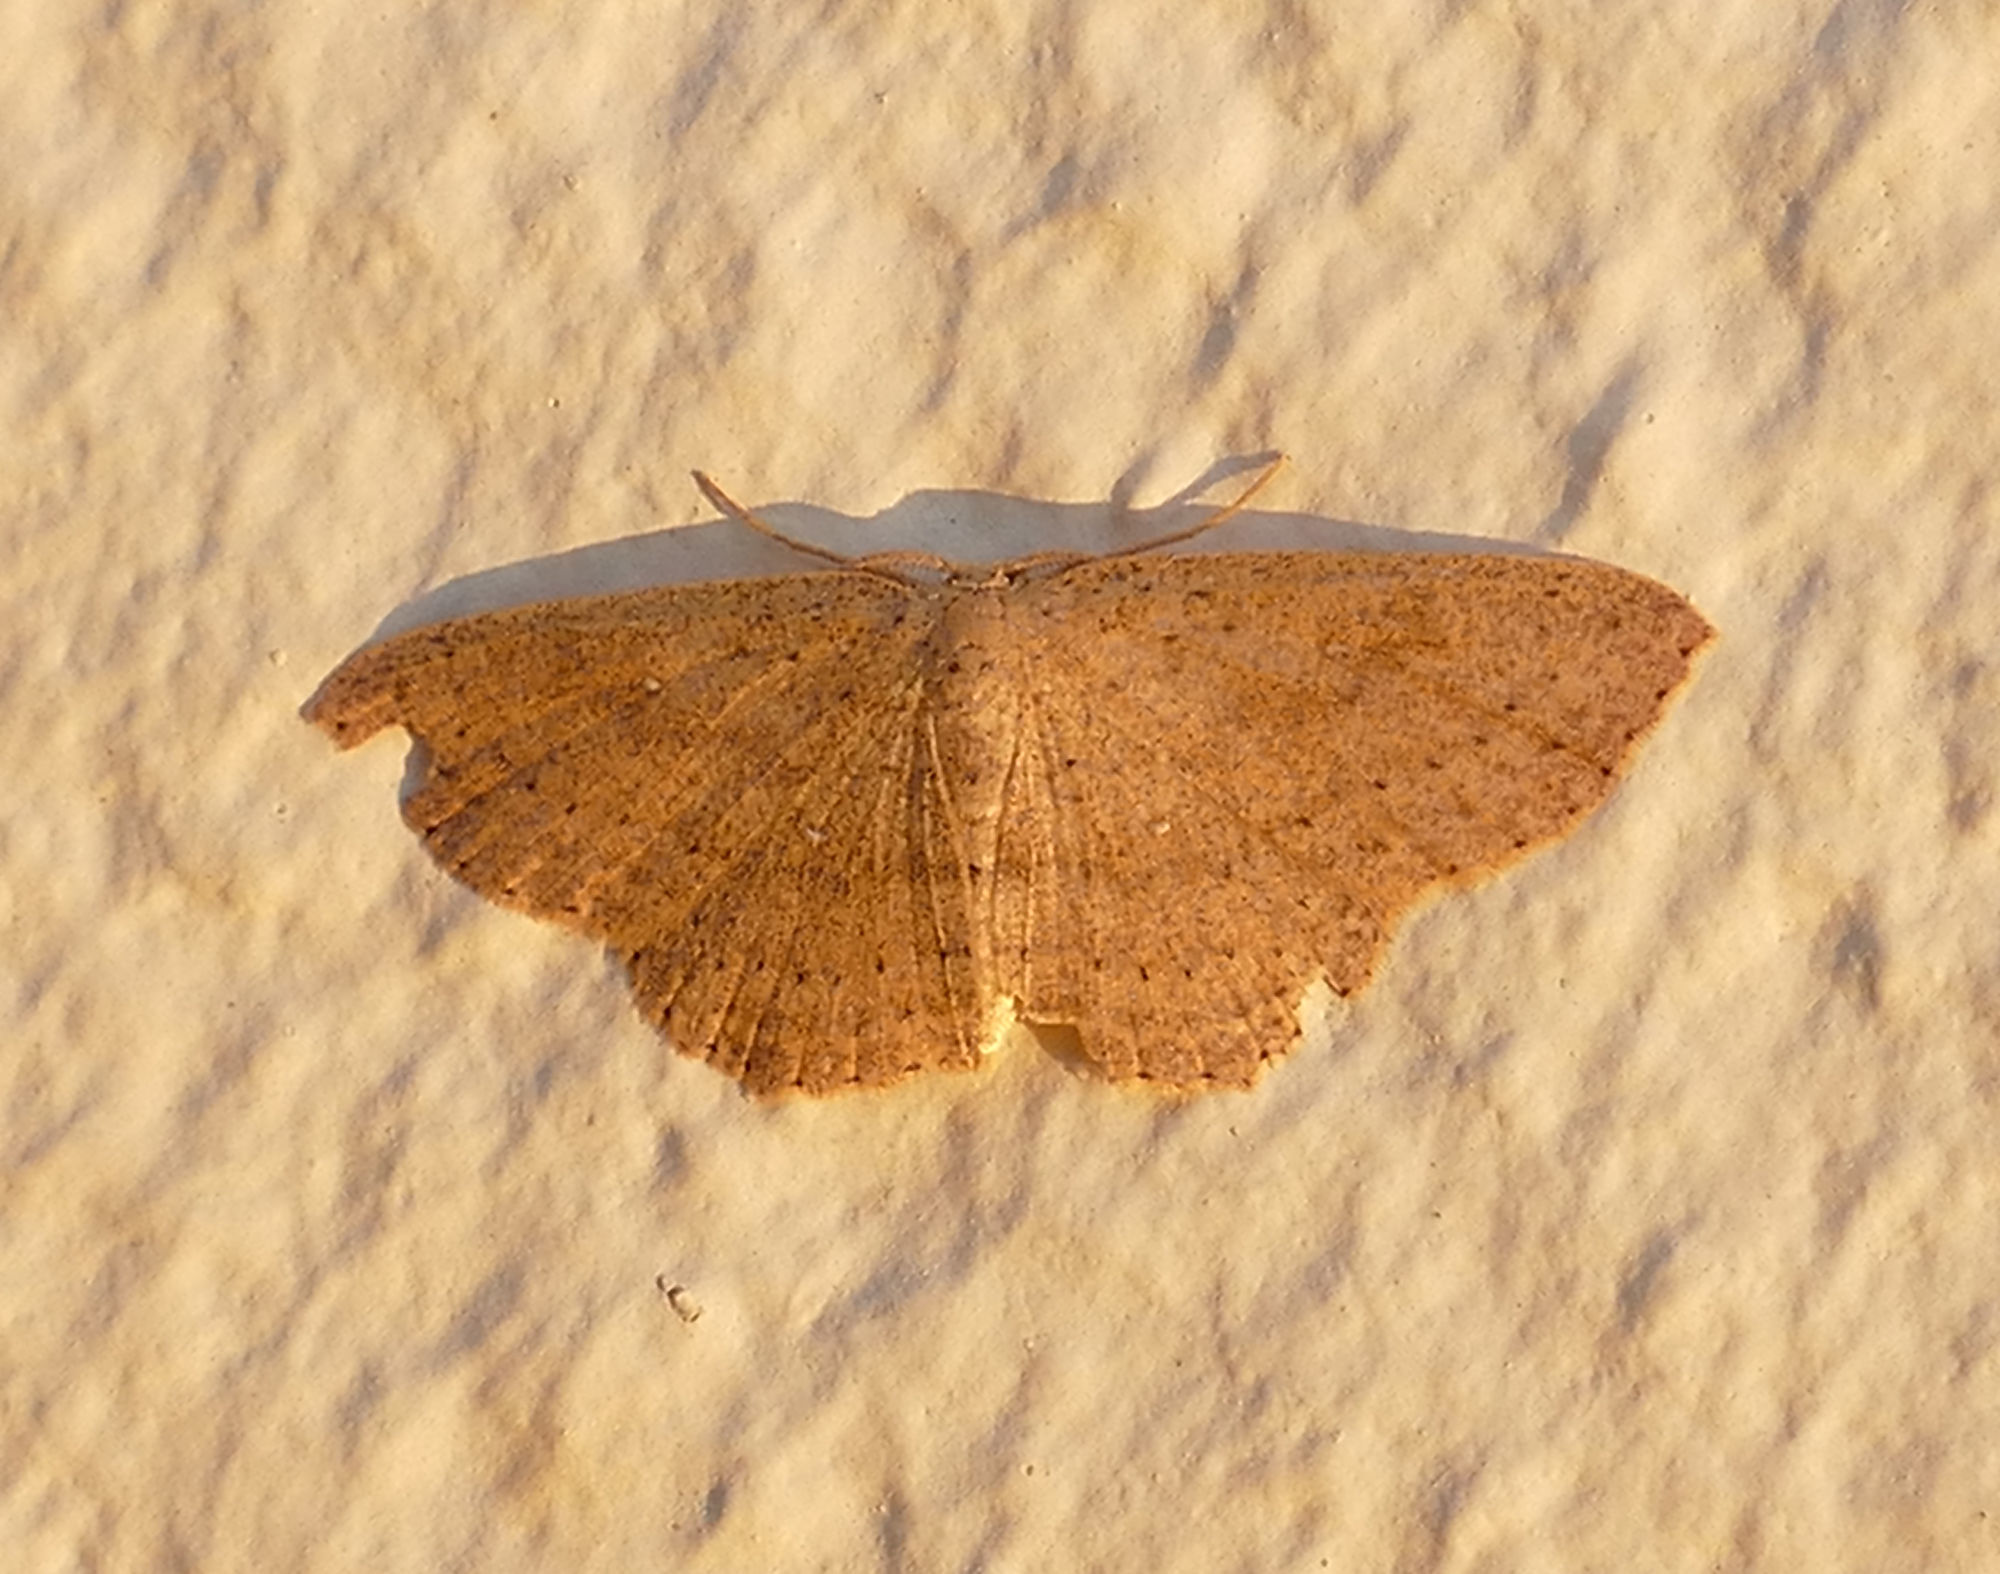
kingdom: Animalia
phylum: Arthropoda
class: Insecta
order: Lepidoptera
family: Geometridae
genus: Cyclophora
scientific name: Cyclophora myrtaria
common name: Waxmyrtle wave moth
